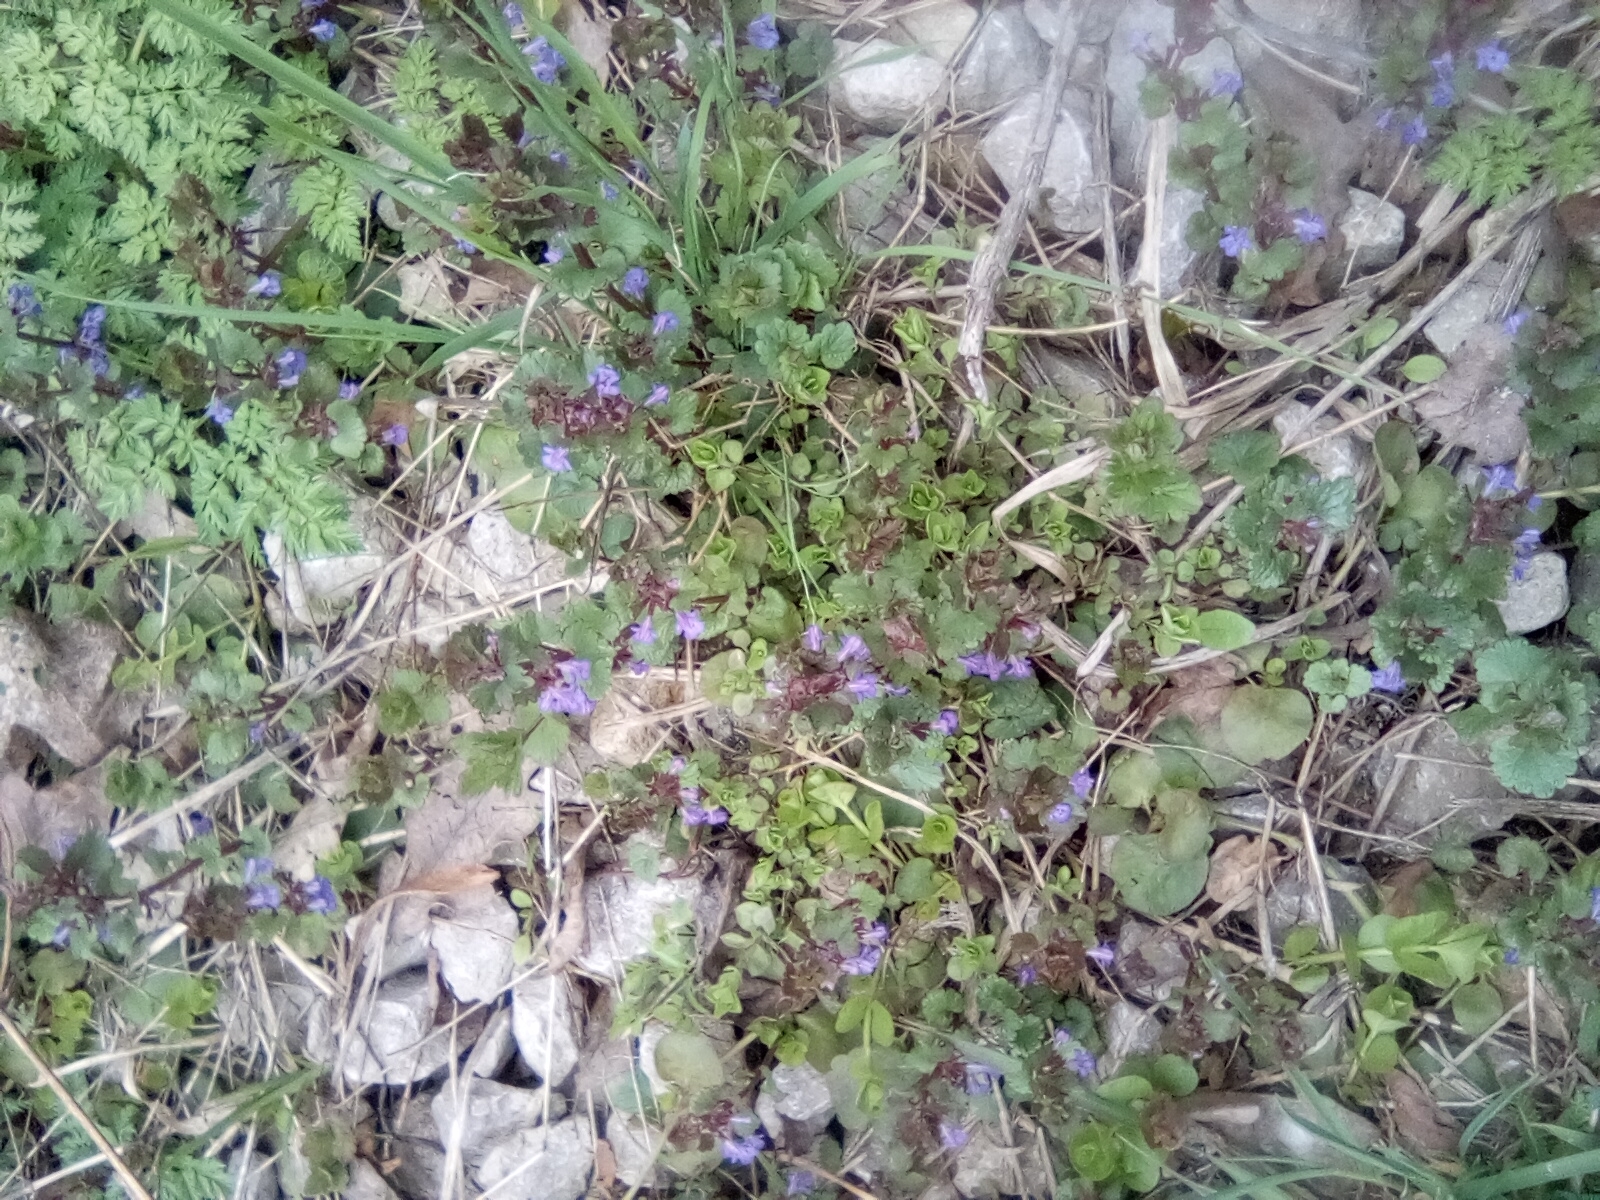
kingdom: Plantae
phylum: Tracheophyta
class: Magnoliopsida
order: Lamiales
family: Lamiaceae
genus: Glechoma
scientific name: Glechoma hederacea
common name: Ground ivy
